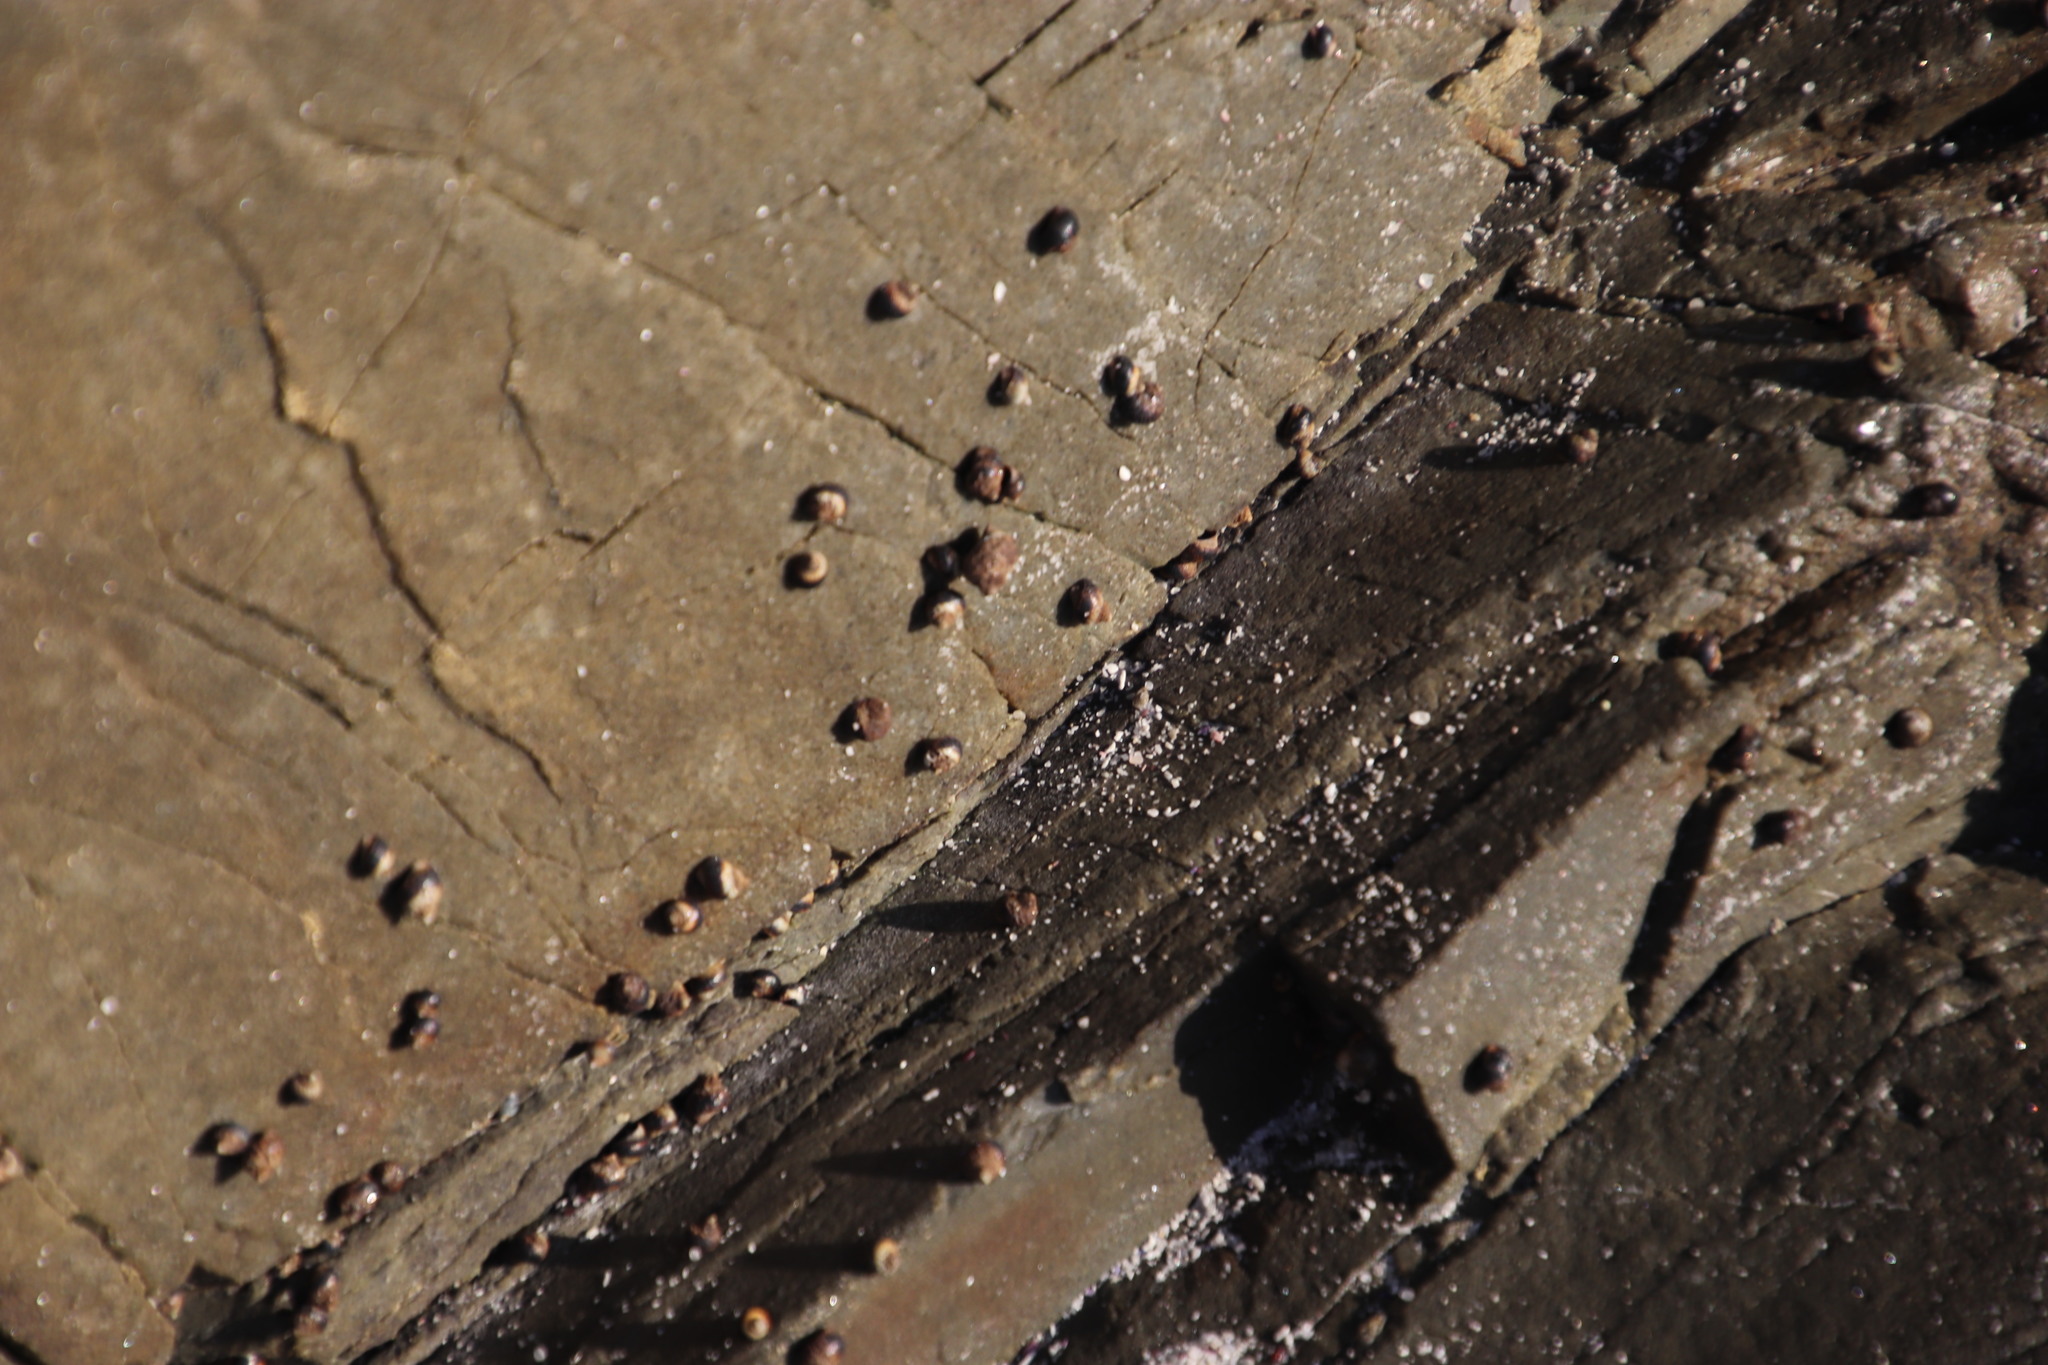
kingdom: Animalia
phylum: Mollusca
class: Gastropoda
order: Littorinimorpha
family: Littorinidae
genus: Afrolittorina
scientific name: Afrolittorina knysnaensis
